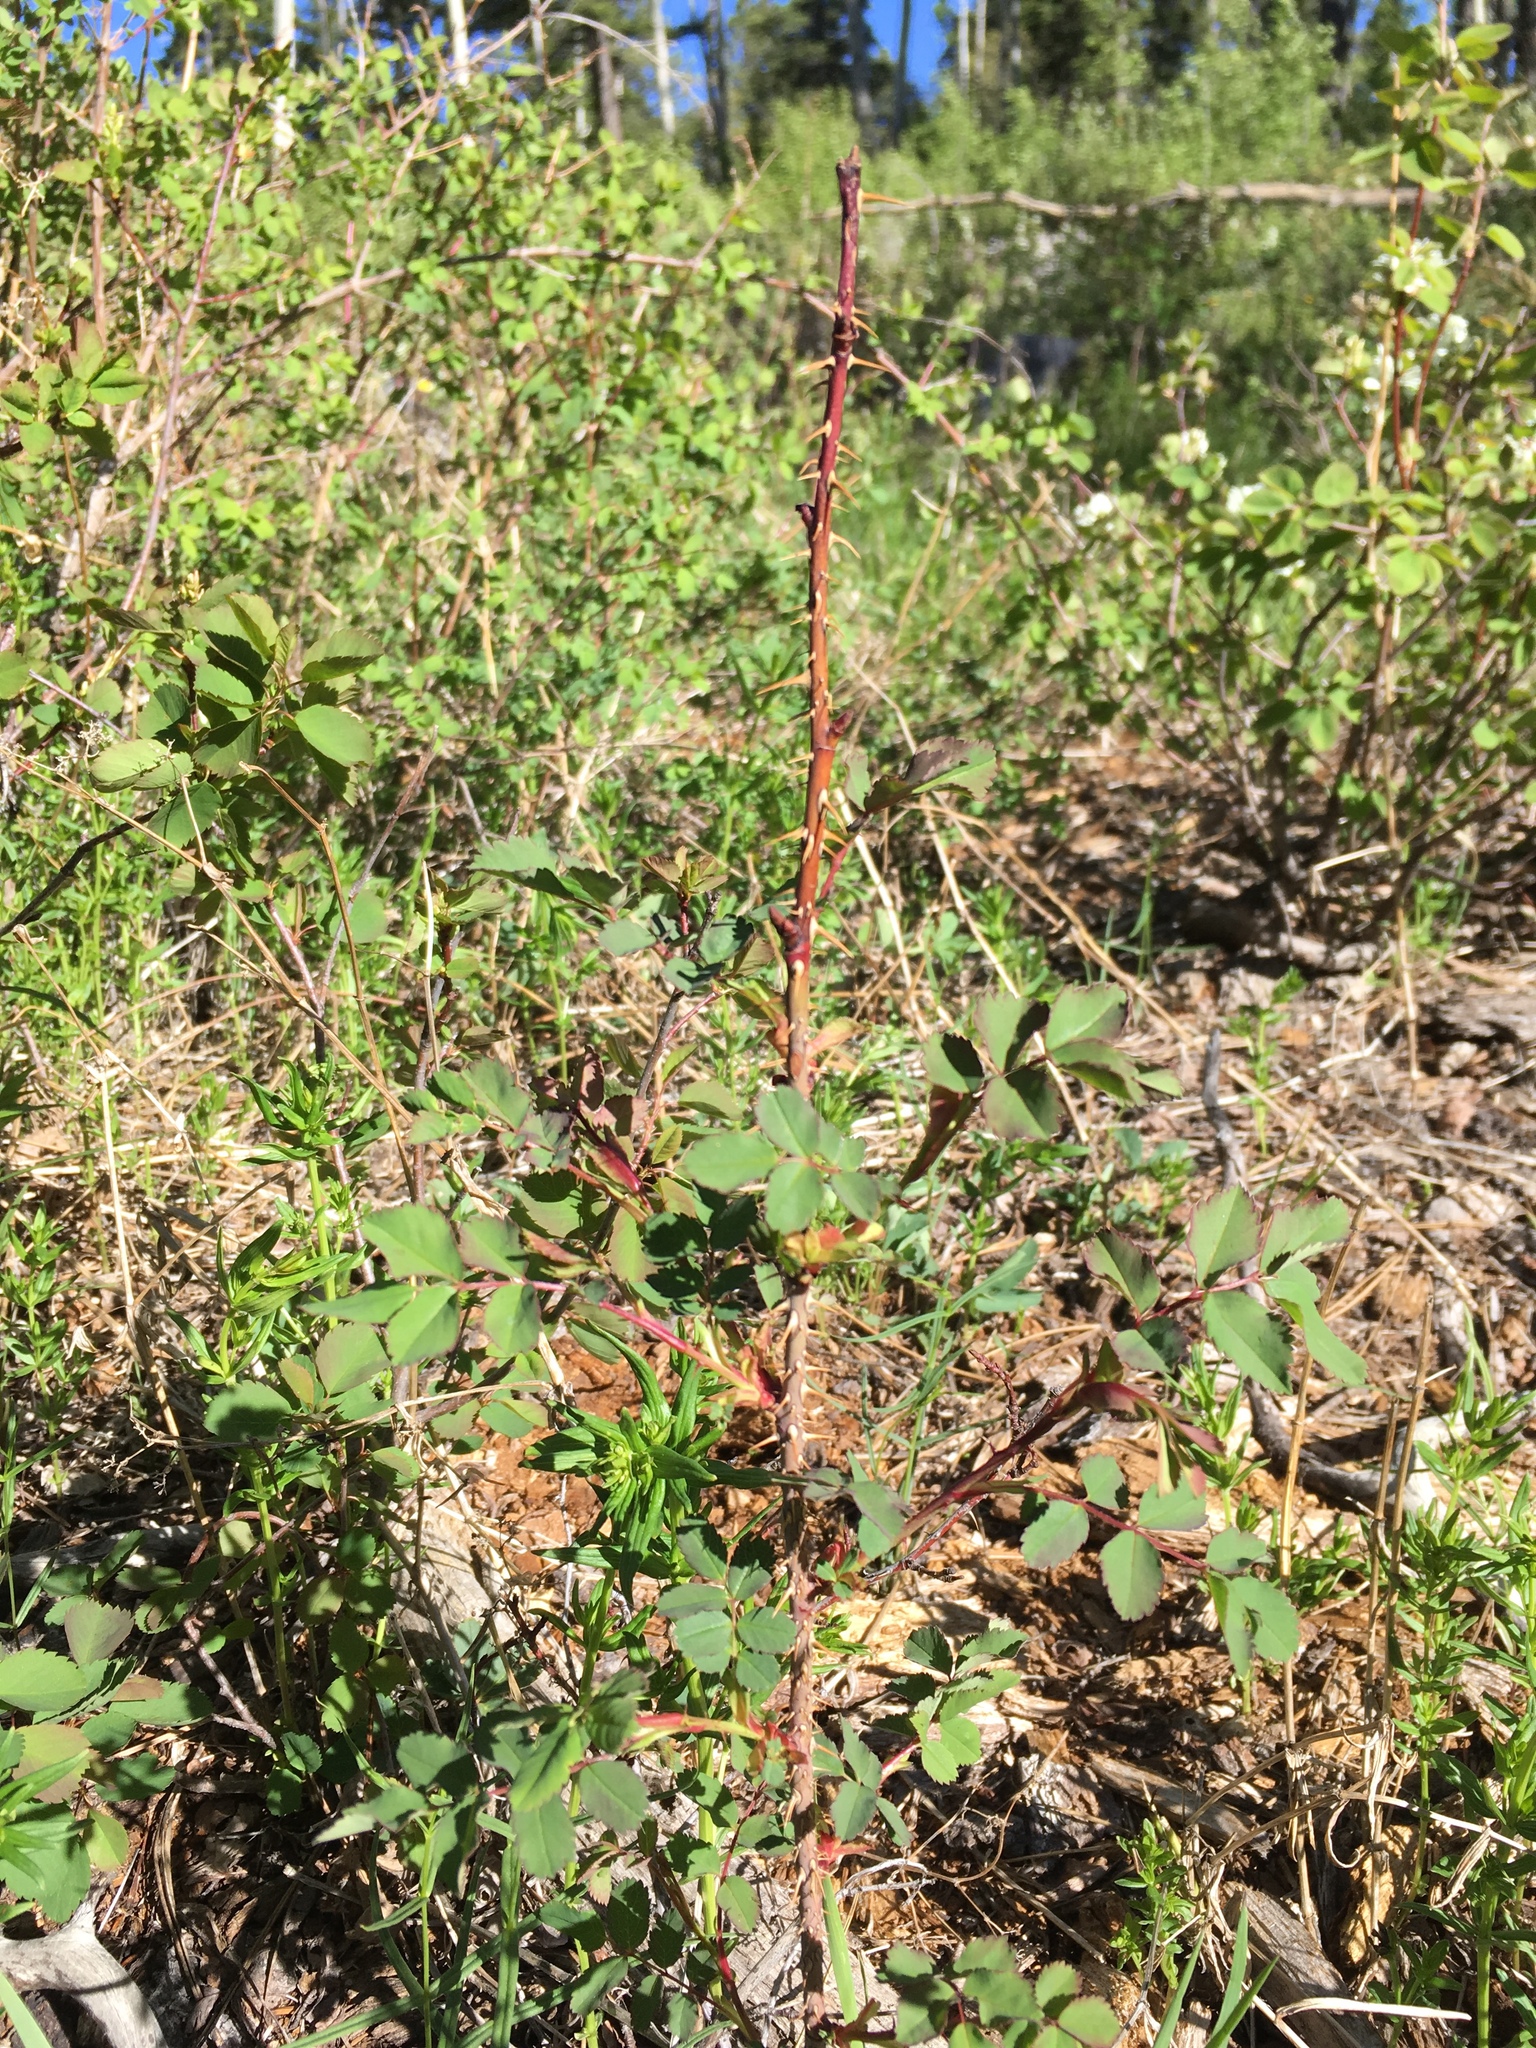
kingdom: Plantae
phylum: Tracheophyta
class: Magnoliopsida
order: Rosales
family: Rosaceae
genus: Rosa
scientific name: Rosa woodsii
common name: Woods's rose
